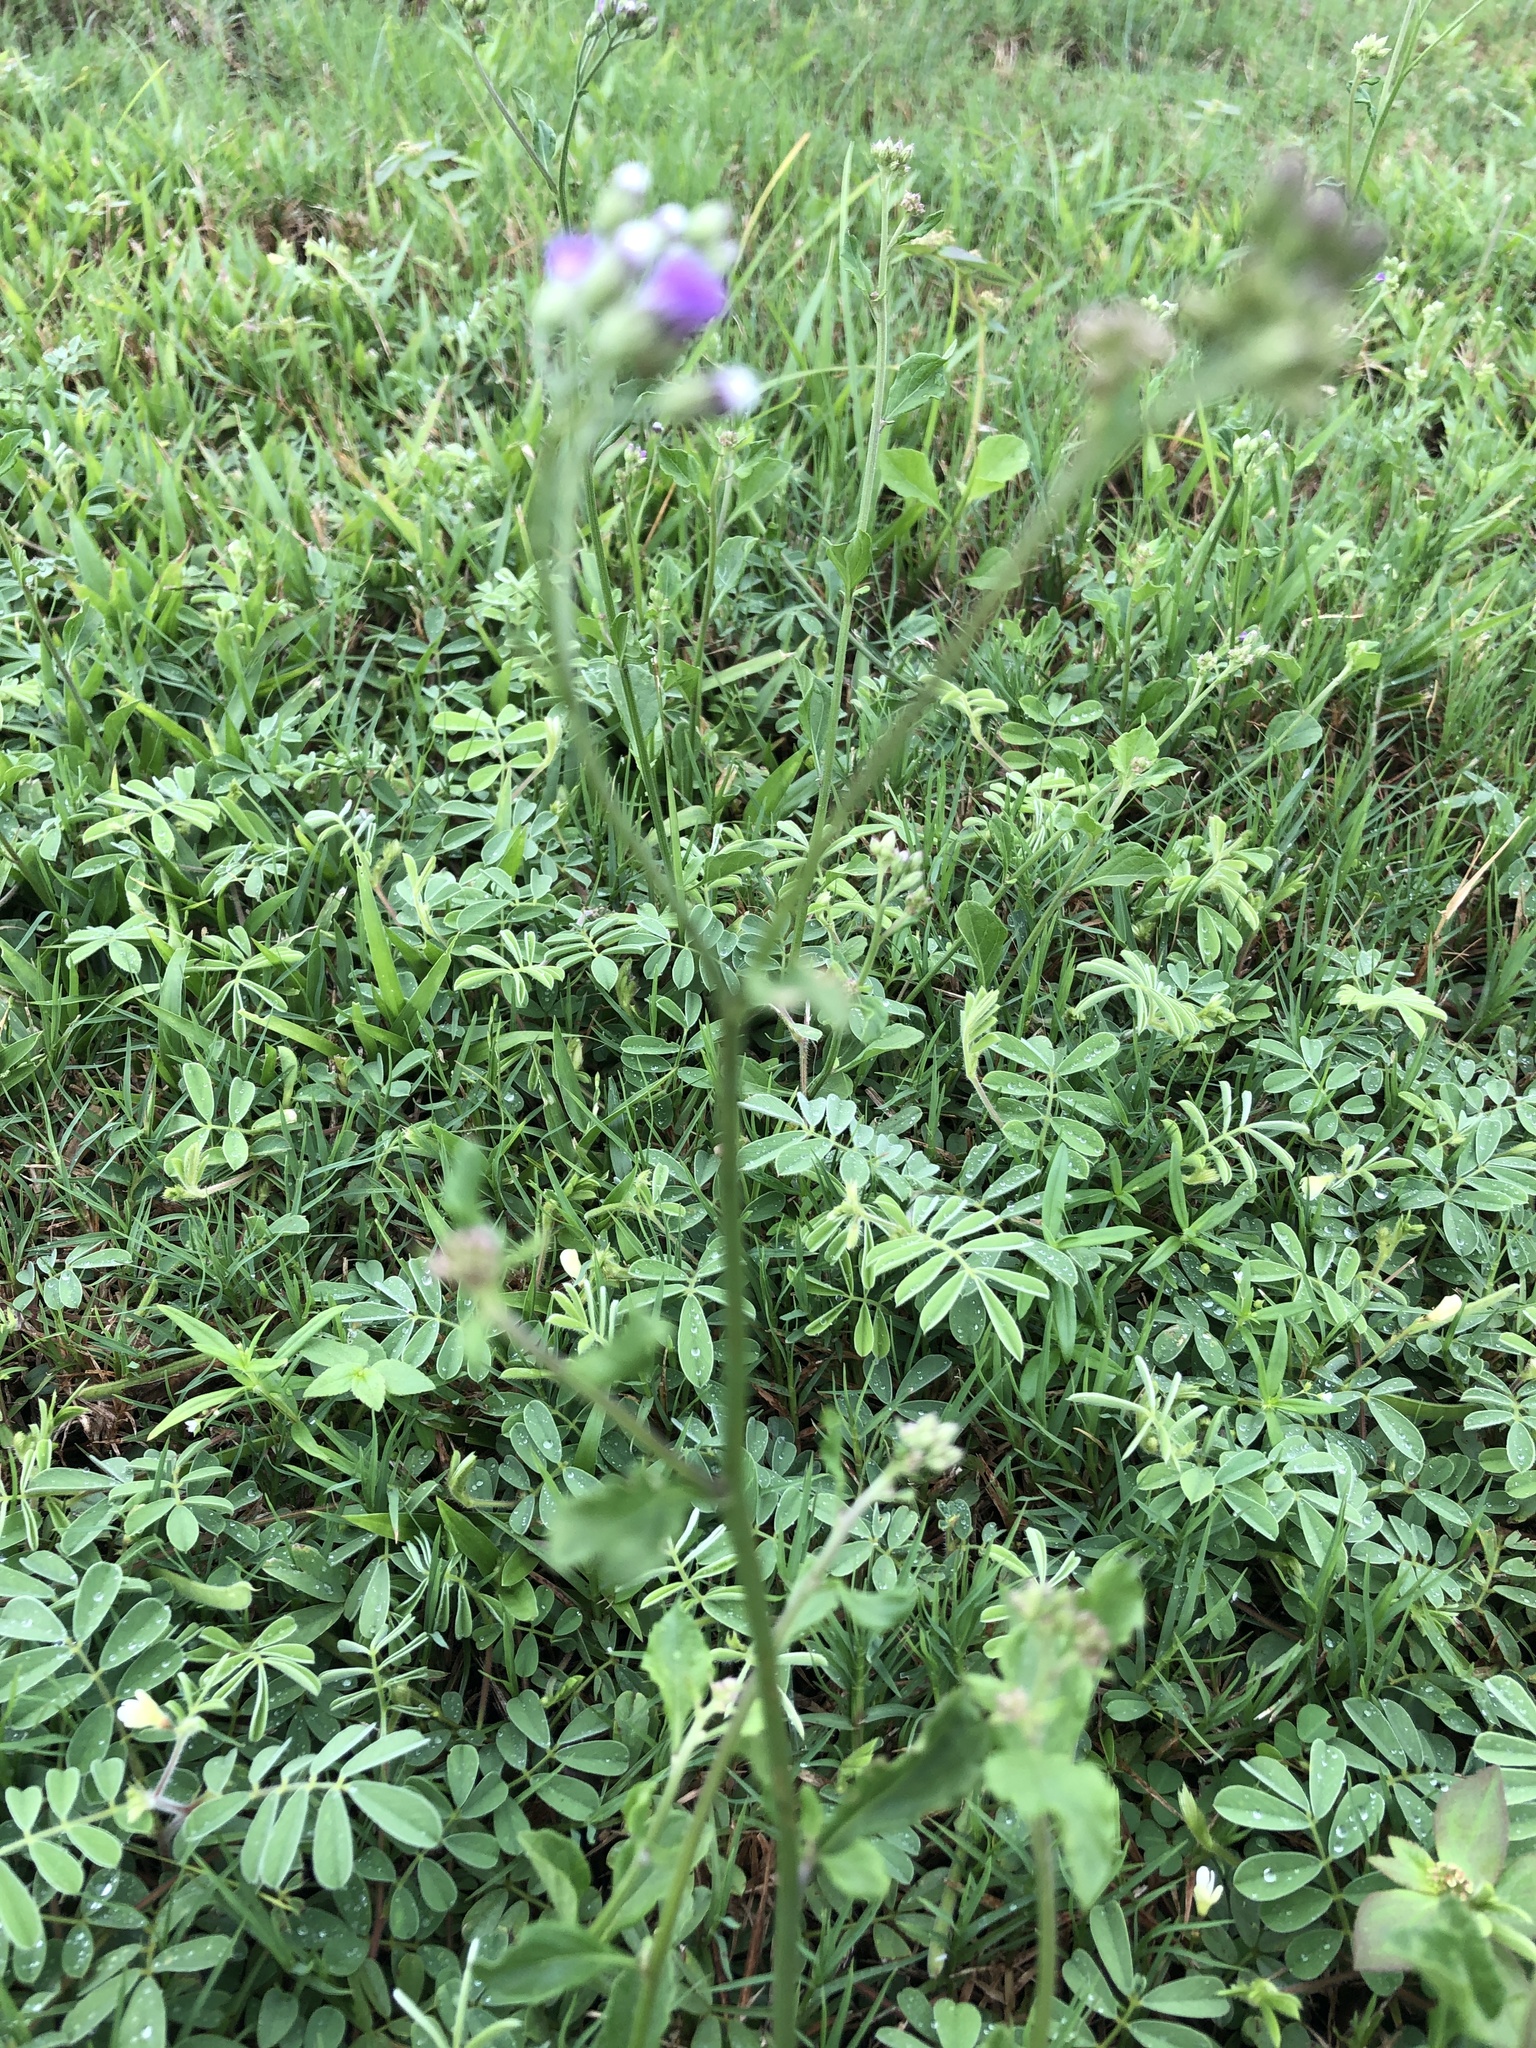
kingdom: Plantae
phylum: Tracheophyta
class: Magnoliopsida
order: Asterales
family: Asteraceae
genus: Cyanthillium
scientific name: Cyanthillium cinereum
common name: Little ironweed
